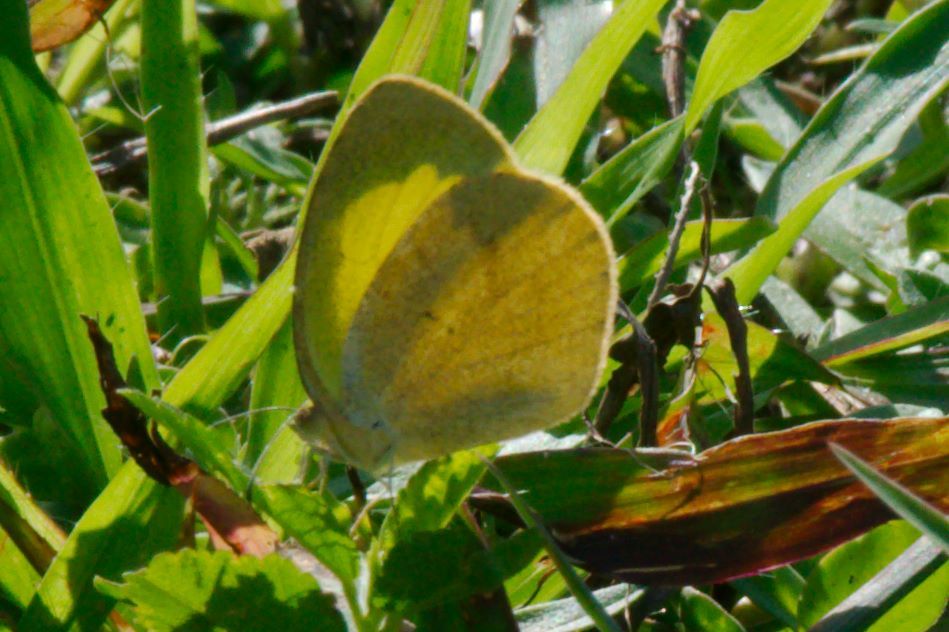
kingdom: Animalia
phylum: Arthropoda
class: Insecta
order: Lepidoptera
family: Pieridae
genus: Eurema
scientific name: Eurema daira
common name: Barred sulphur
